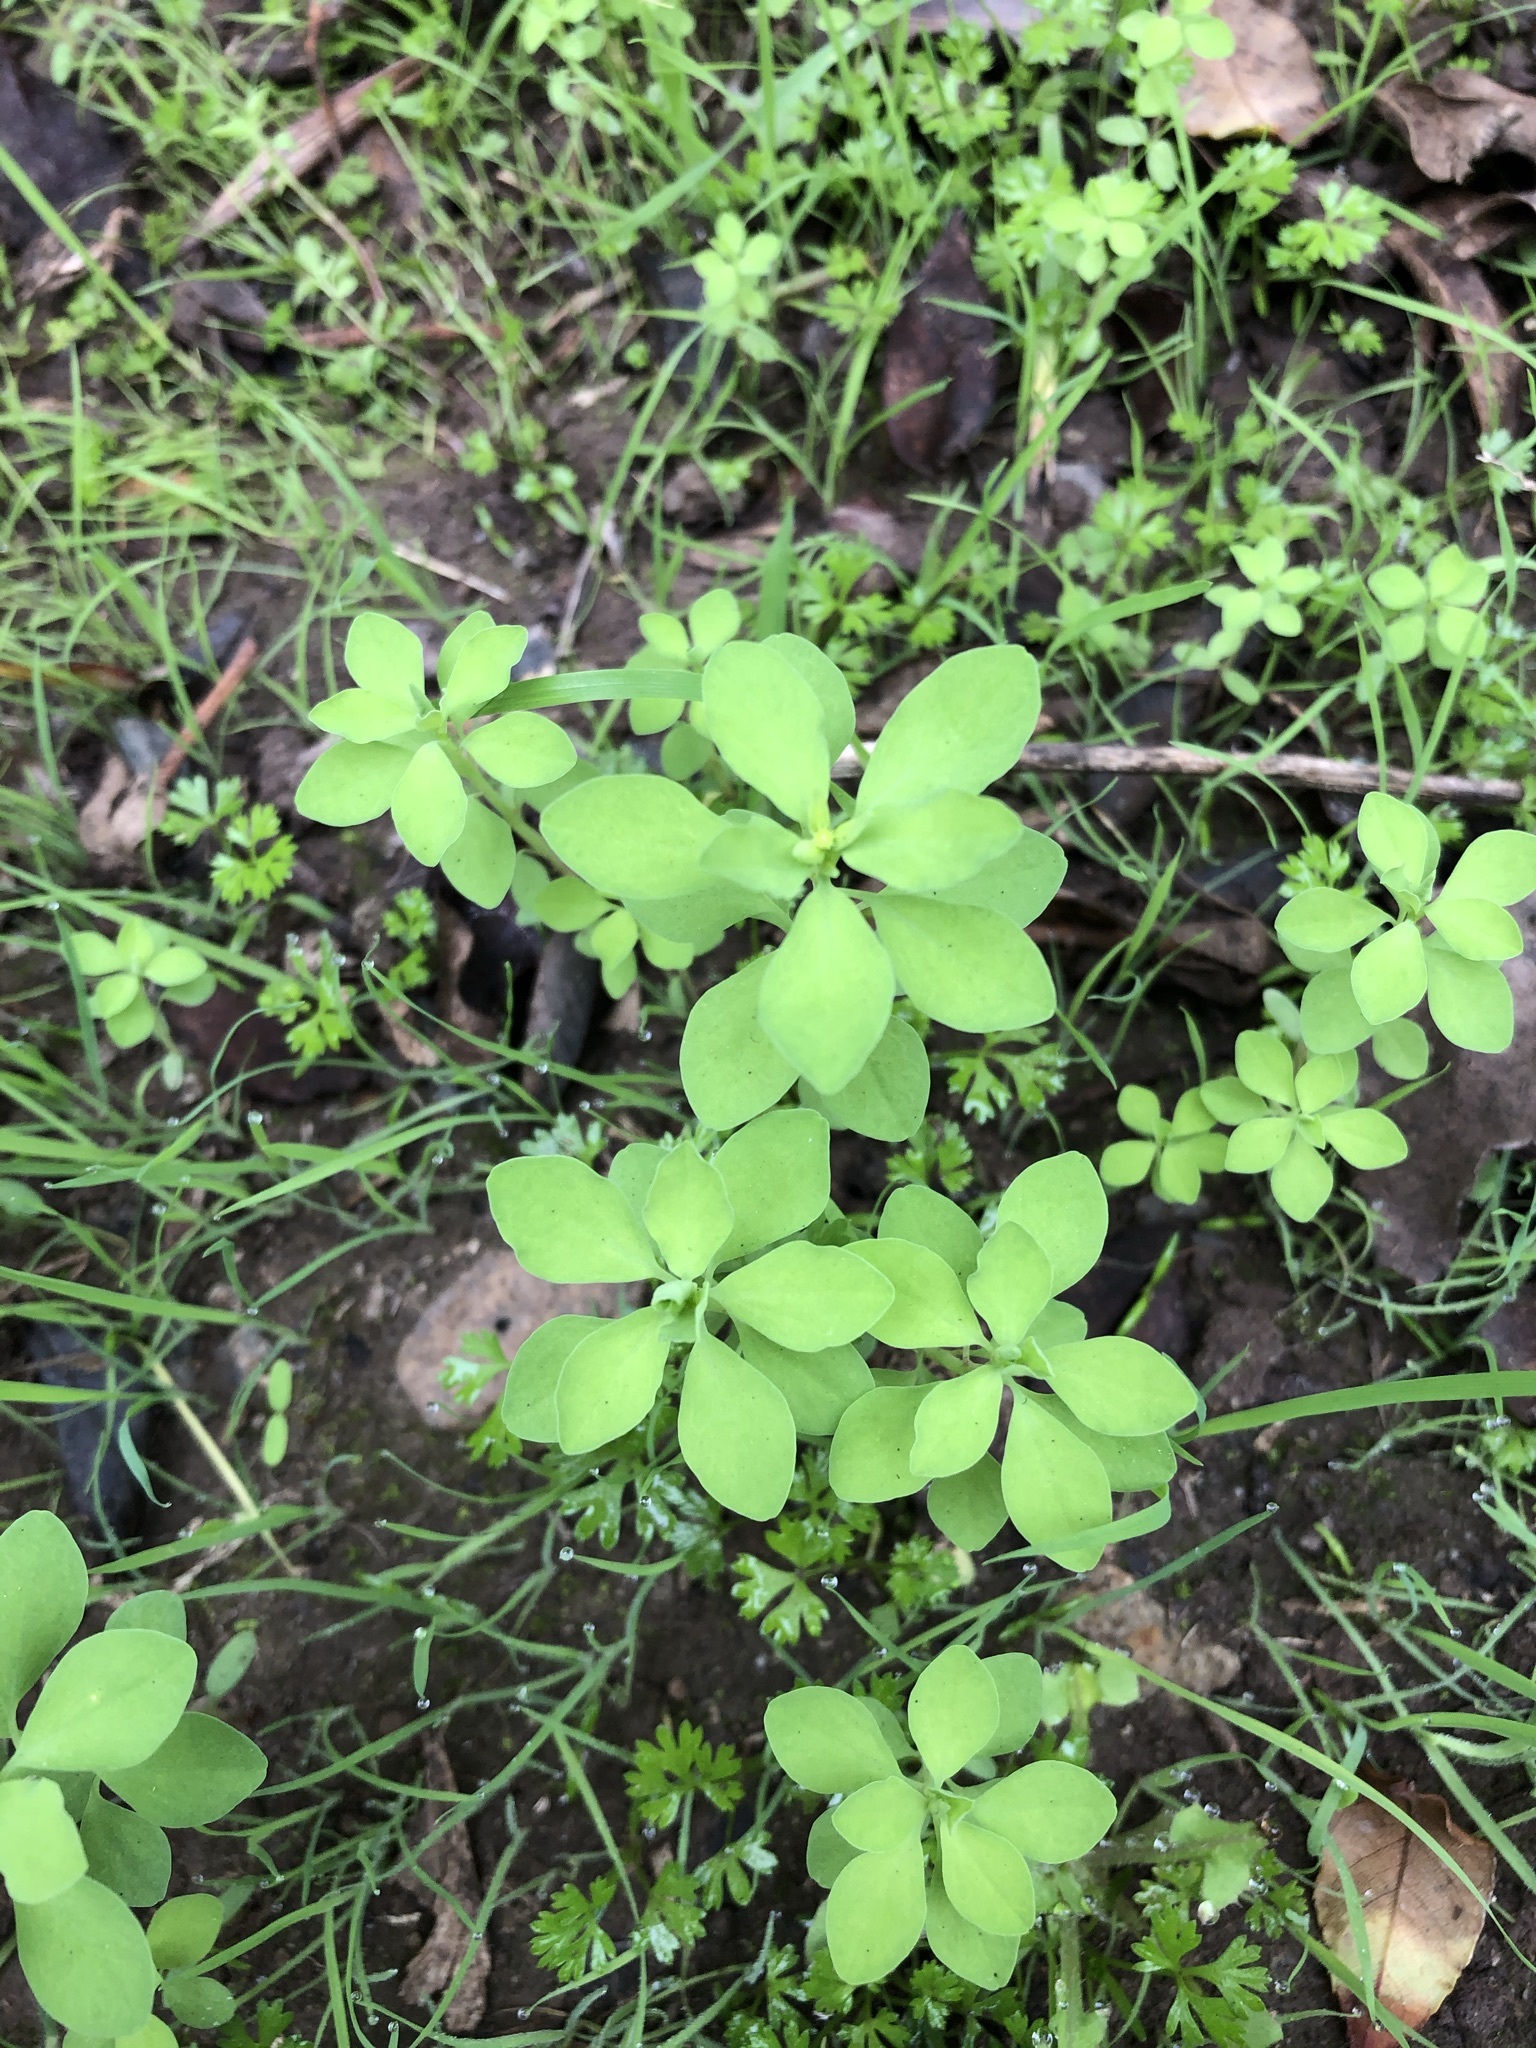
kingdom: Plantae
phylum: Tracheophyta
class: Magnoliopsida
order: Malpighiales
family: Euphorbiaceae
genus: Euphorbia
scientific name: Euphorbia peplus
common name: Petty spurge
